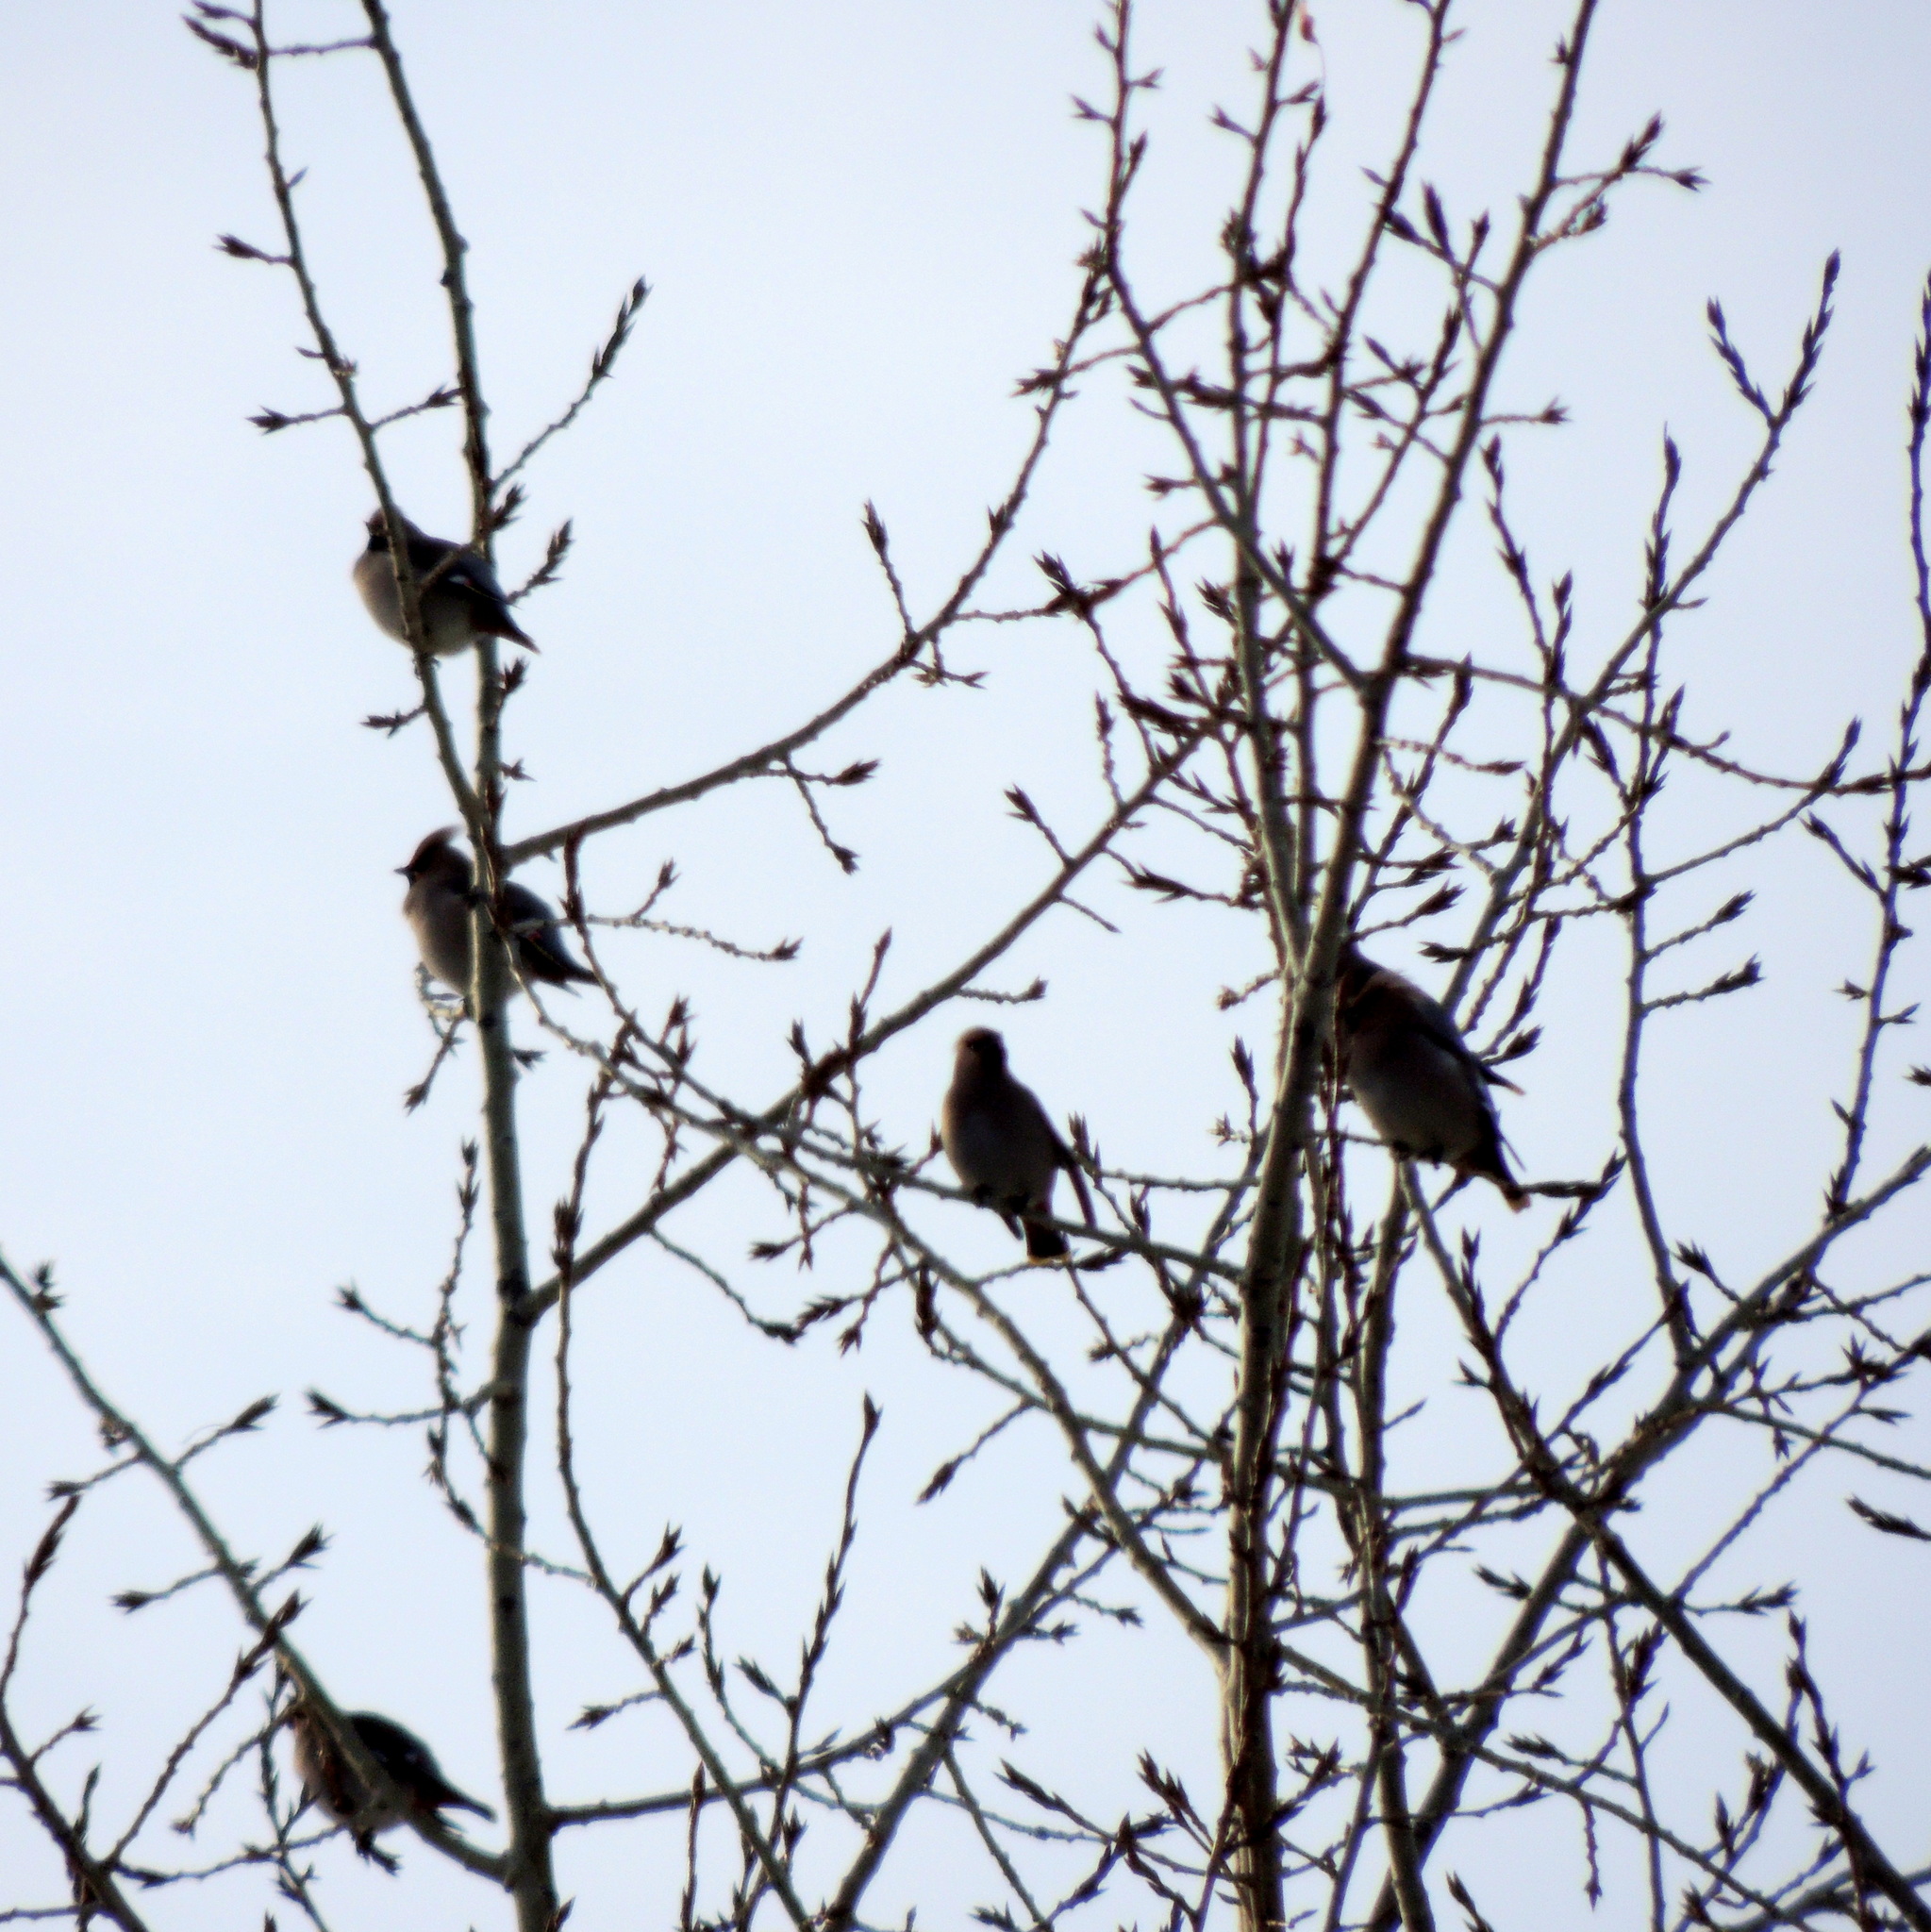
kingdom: Animalia
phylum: Chordata
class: Aves
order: Passeriformes
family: Bombycillidae
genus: Bombycilla
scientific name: Bombycilla garrulus
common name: Bohemian waxwing
